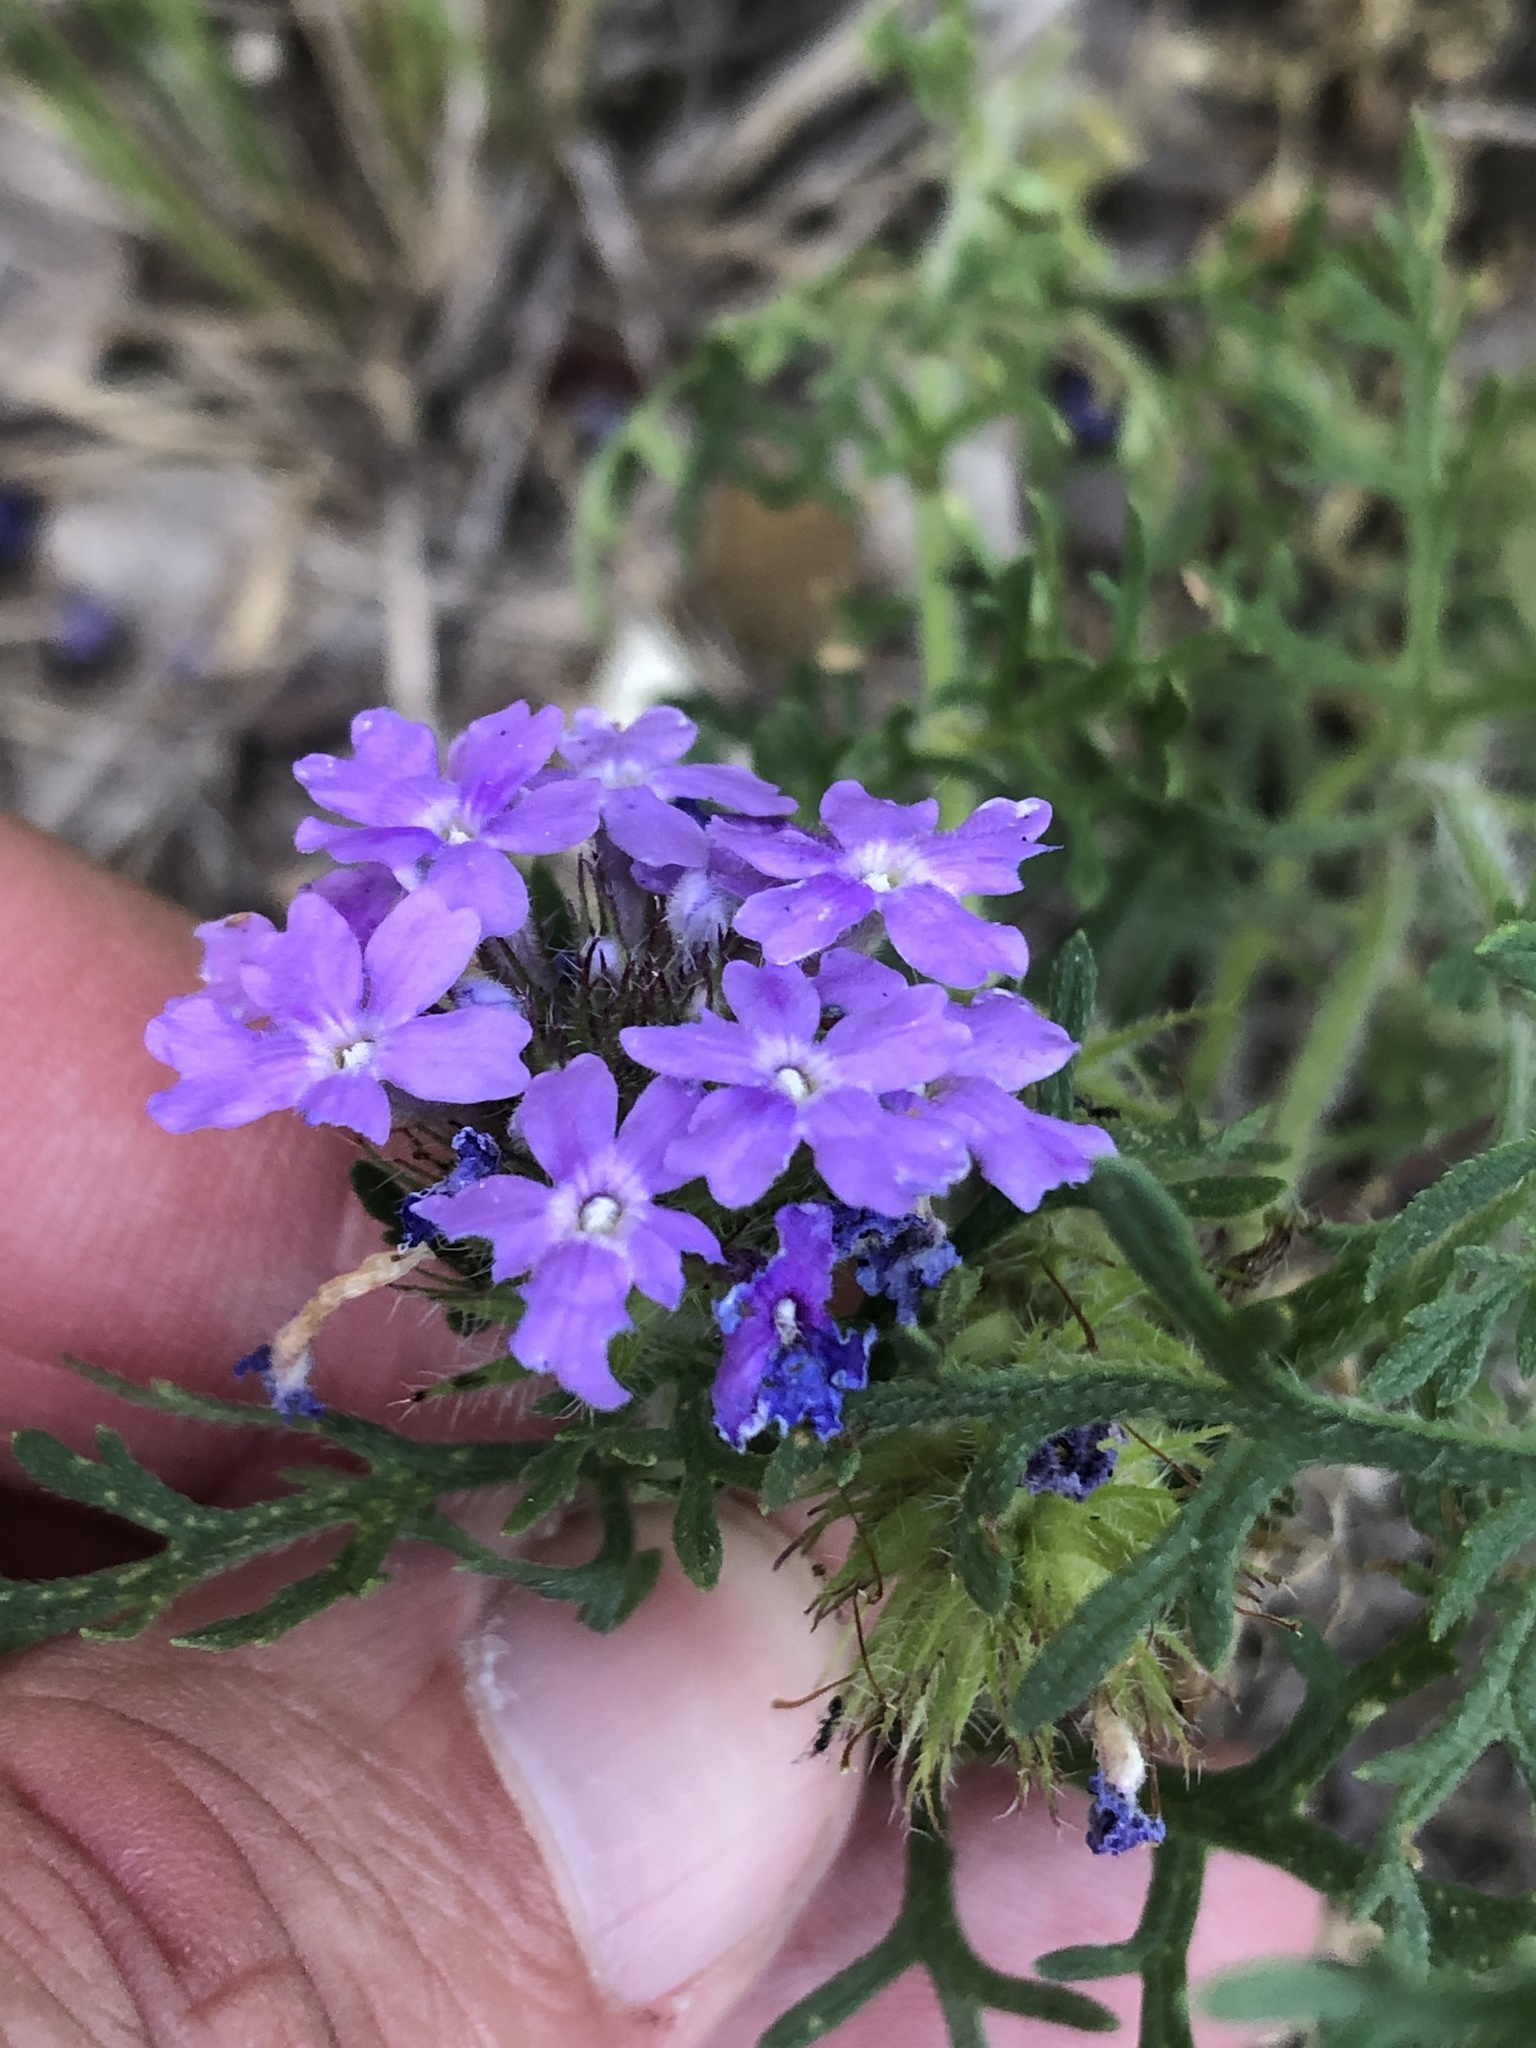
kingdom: Plantae
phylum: Tracheophyta
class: Magnoliopsida
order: Lamiales
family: Verbenaceae
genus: Verbena
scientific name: Verbena bipinnatifida
